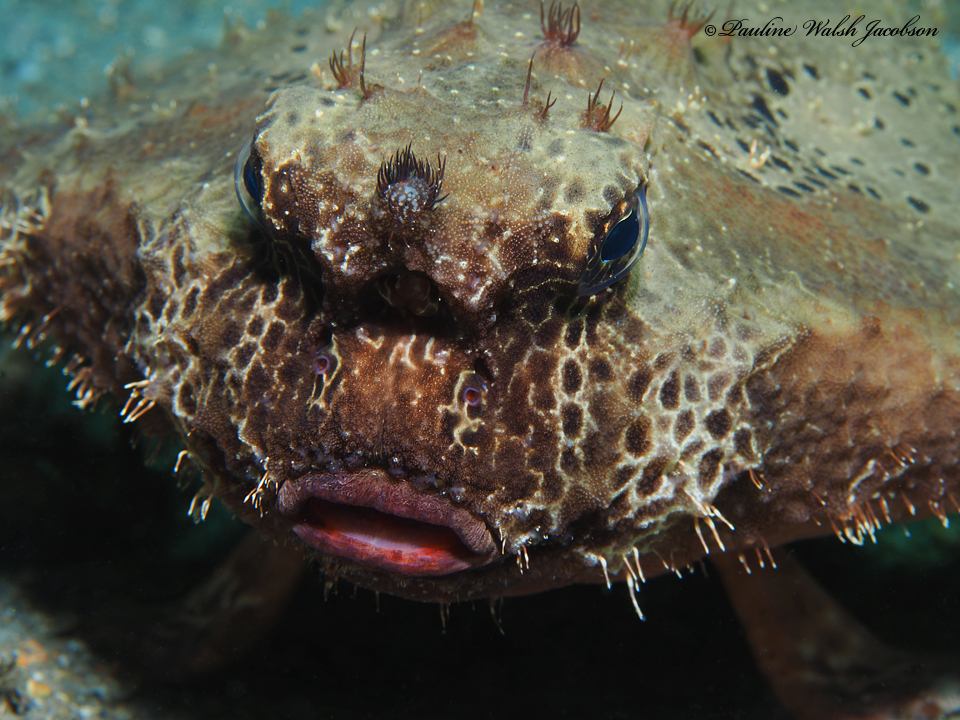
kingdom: Animalia
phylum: Chordata
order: Lophiiformes
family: Ogcocephalidae
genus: Ogcocephalus
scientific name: Ogcocephalus cubifrons
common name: Polka-dot batfish
